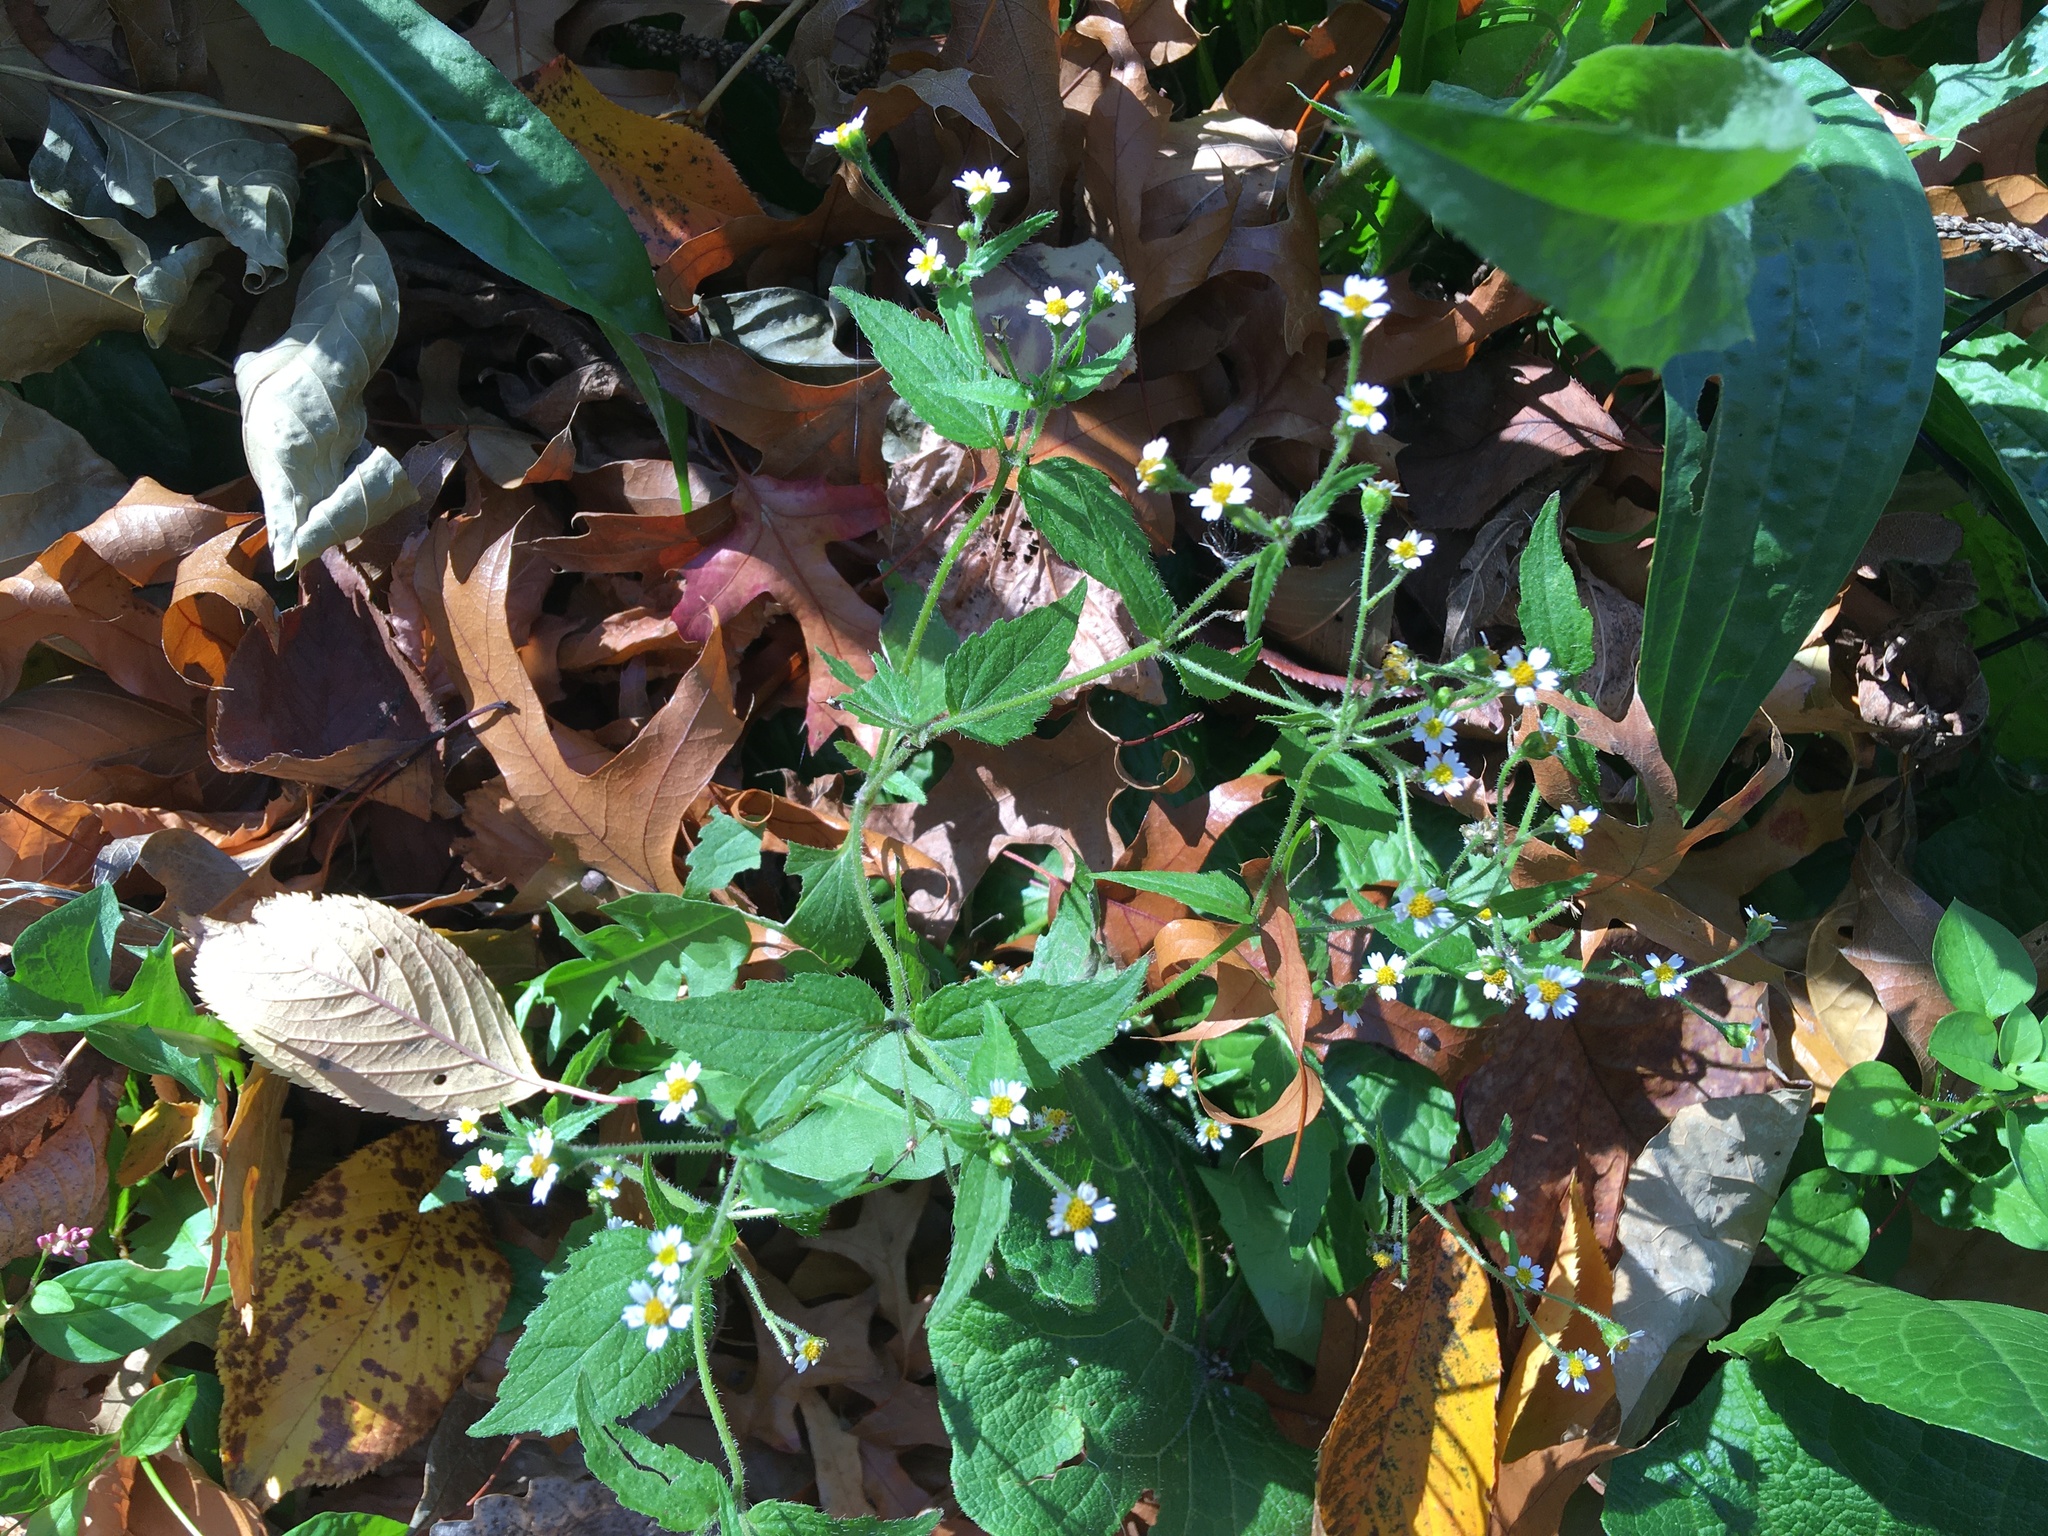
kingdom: Plantae
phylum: Tracheophyta
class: Magnoliopsida
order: Asterales
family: Asteraceae
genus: Galinsoga
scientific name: Galinsoga quadriradiata
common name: Shaggy soldier
